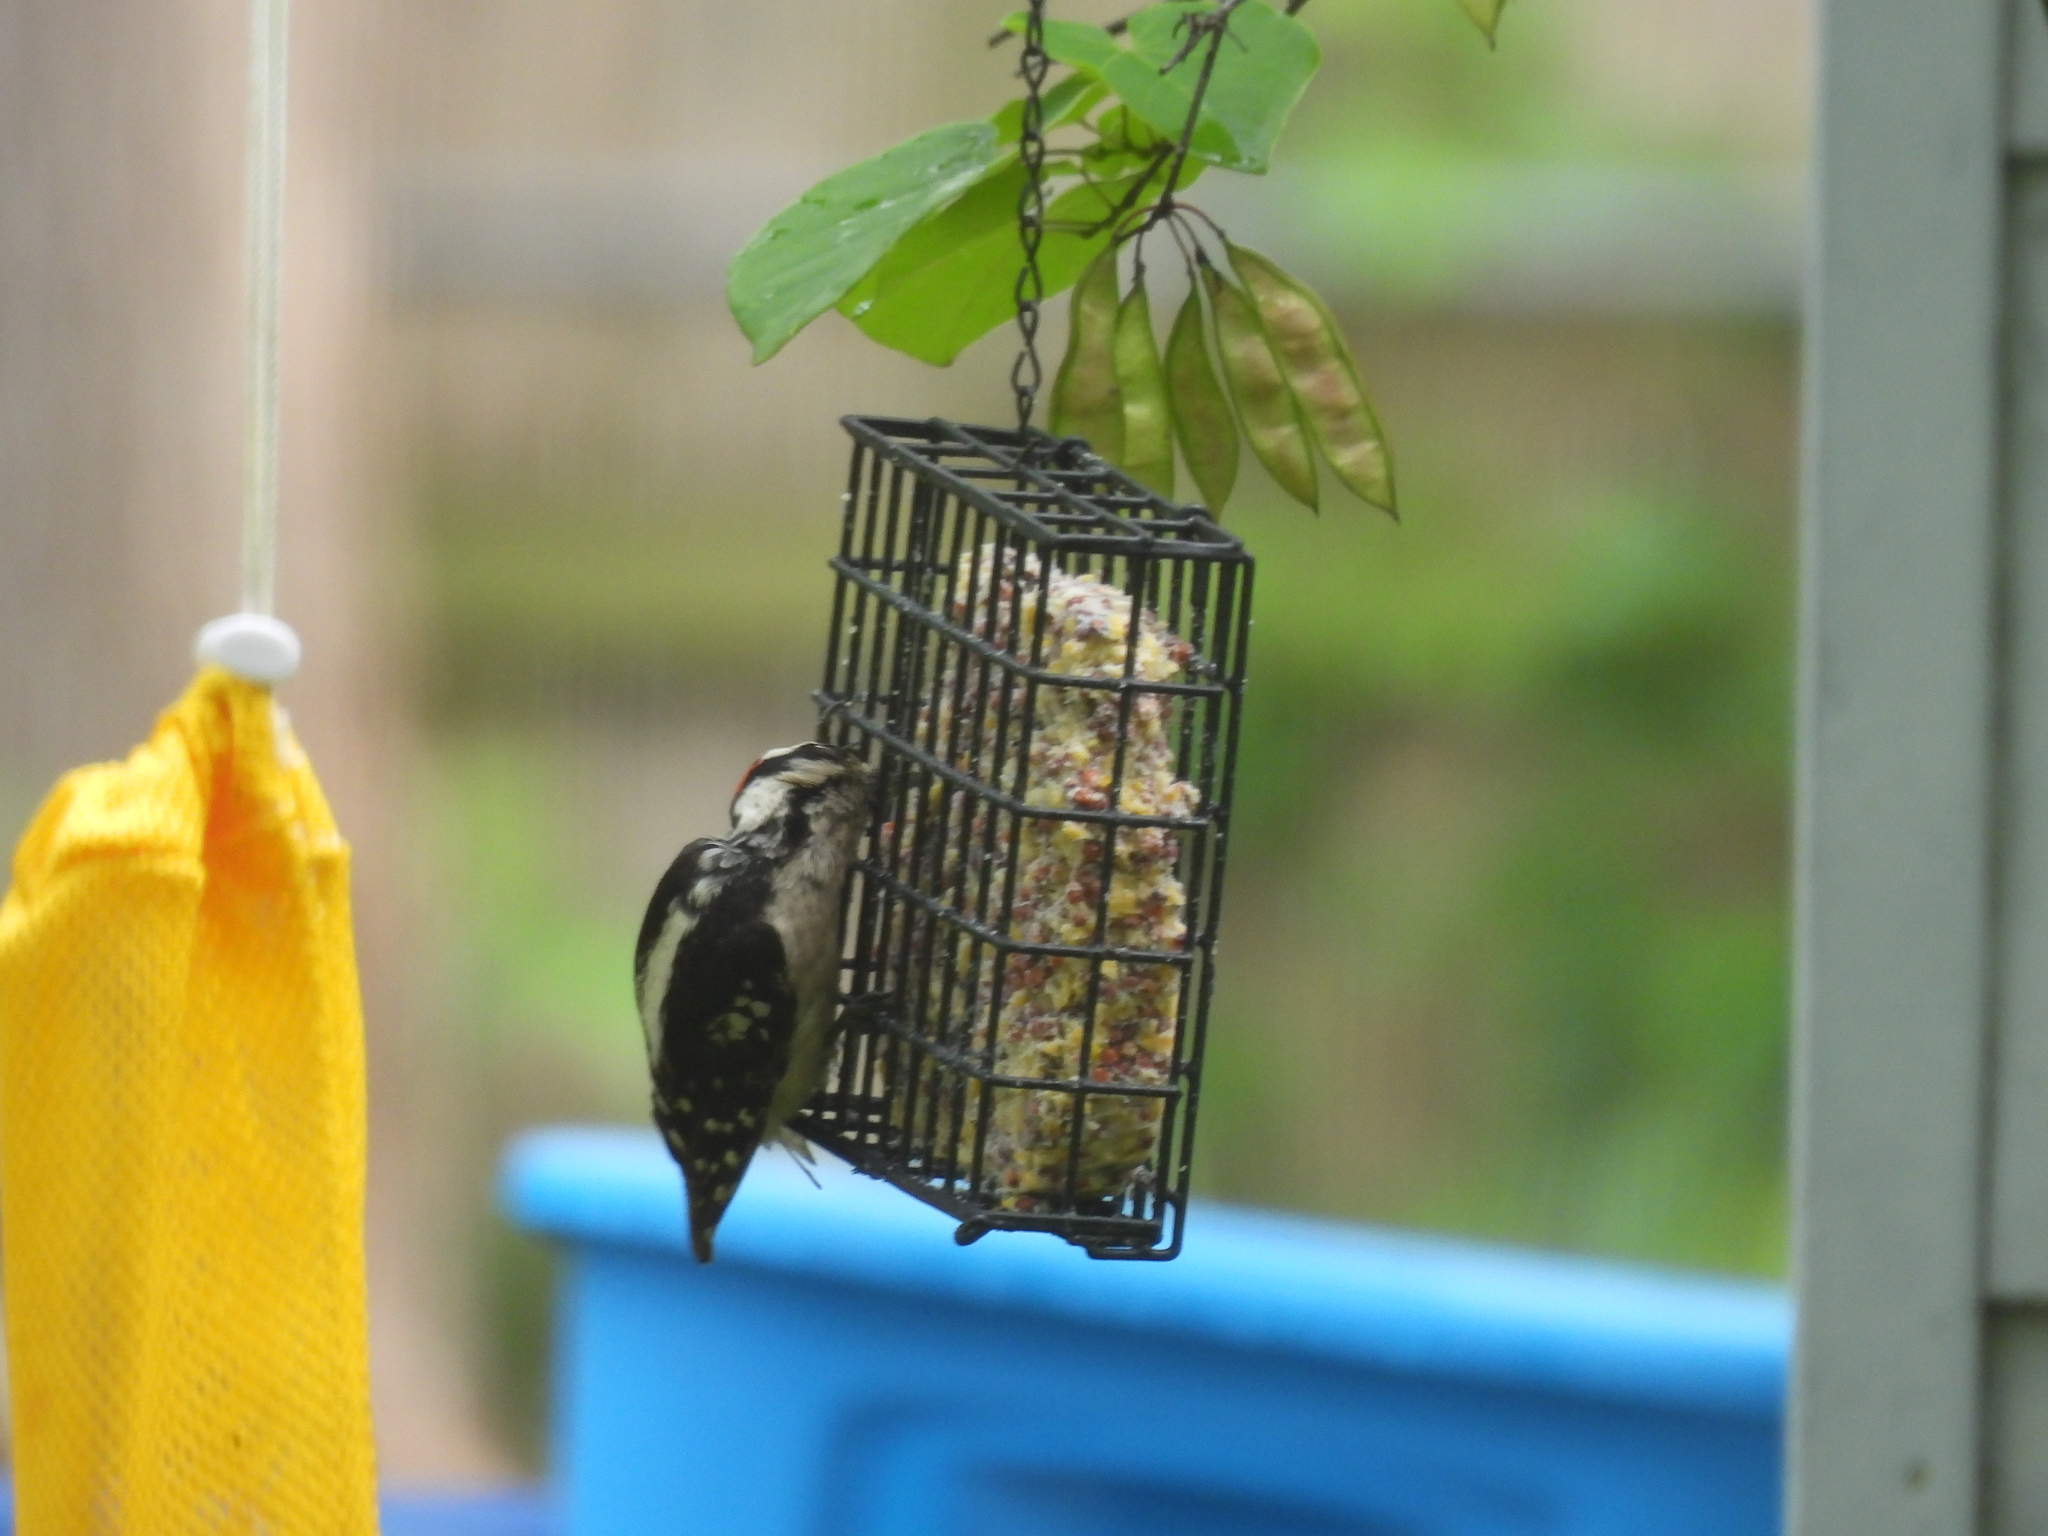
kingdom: Animalia
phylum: Chordata
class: Aves
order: Piciformes
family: Picidae
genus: Dryobates
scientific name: Dryobates pubescens
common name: Downy woodpecker
